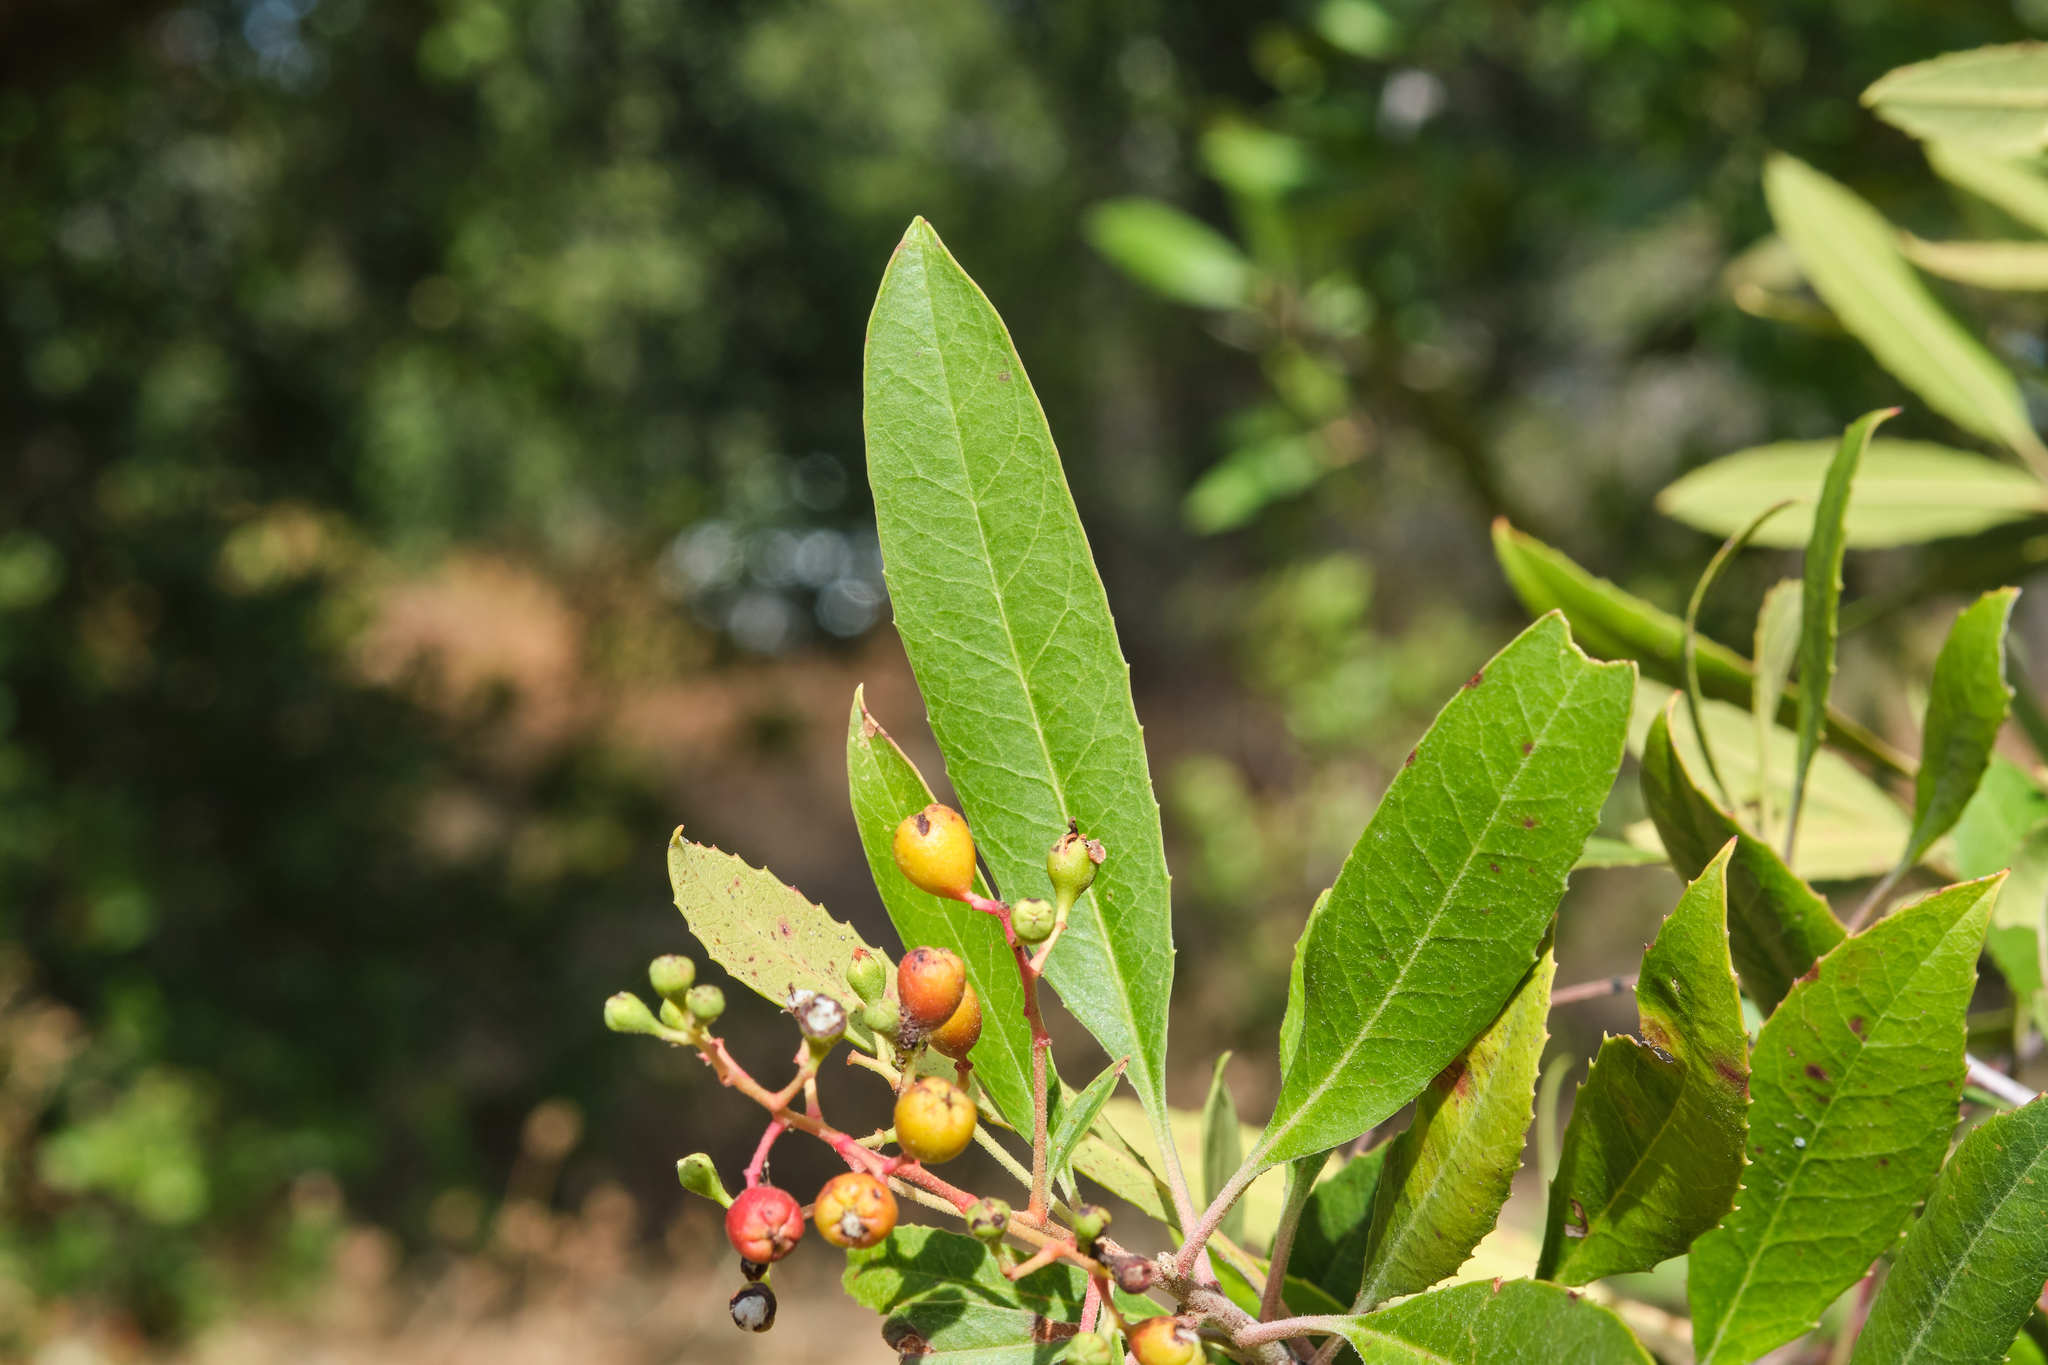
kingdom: Plantae
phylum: Tracheophyta
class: Magnoliopsida
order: Rosales
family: Rosaceae
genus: Heteromeles
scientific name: Heteromeles arbutifolia
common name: California-holly
